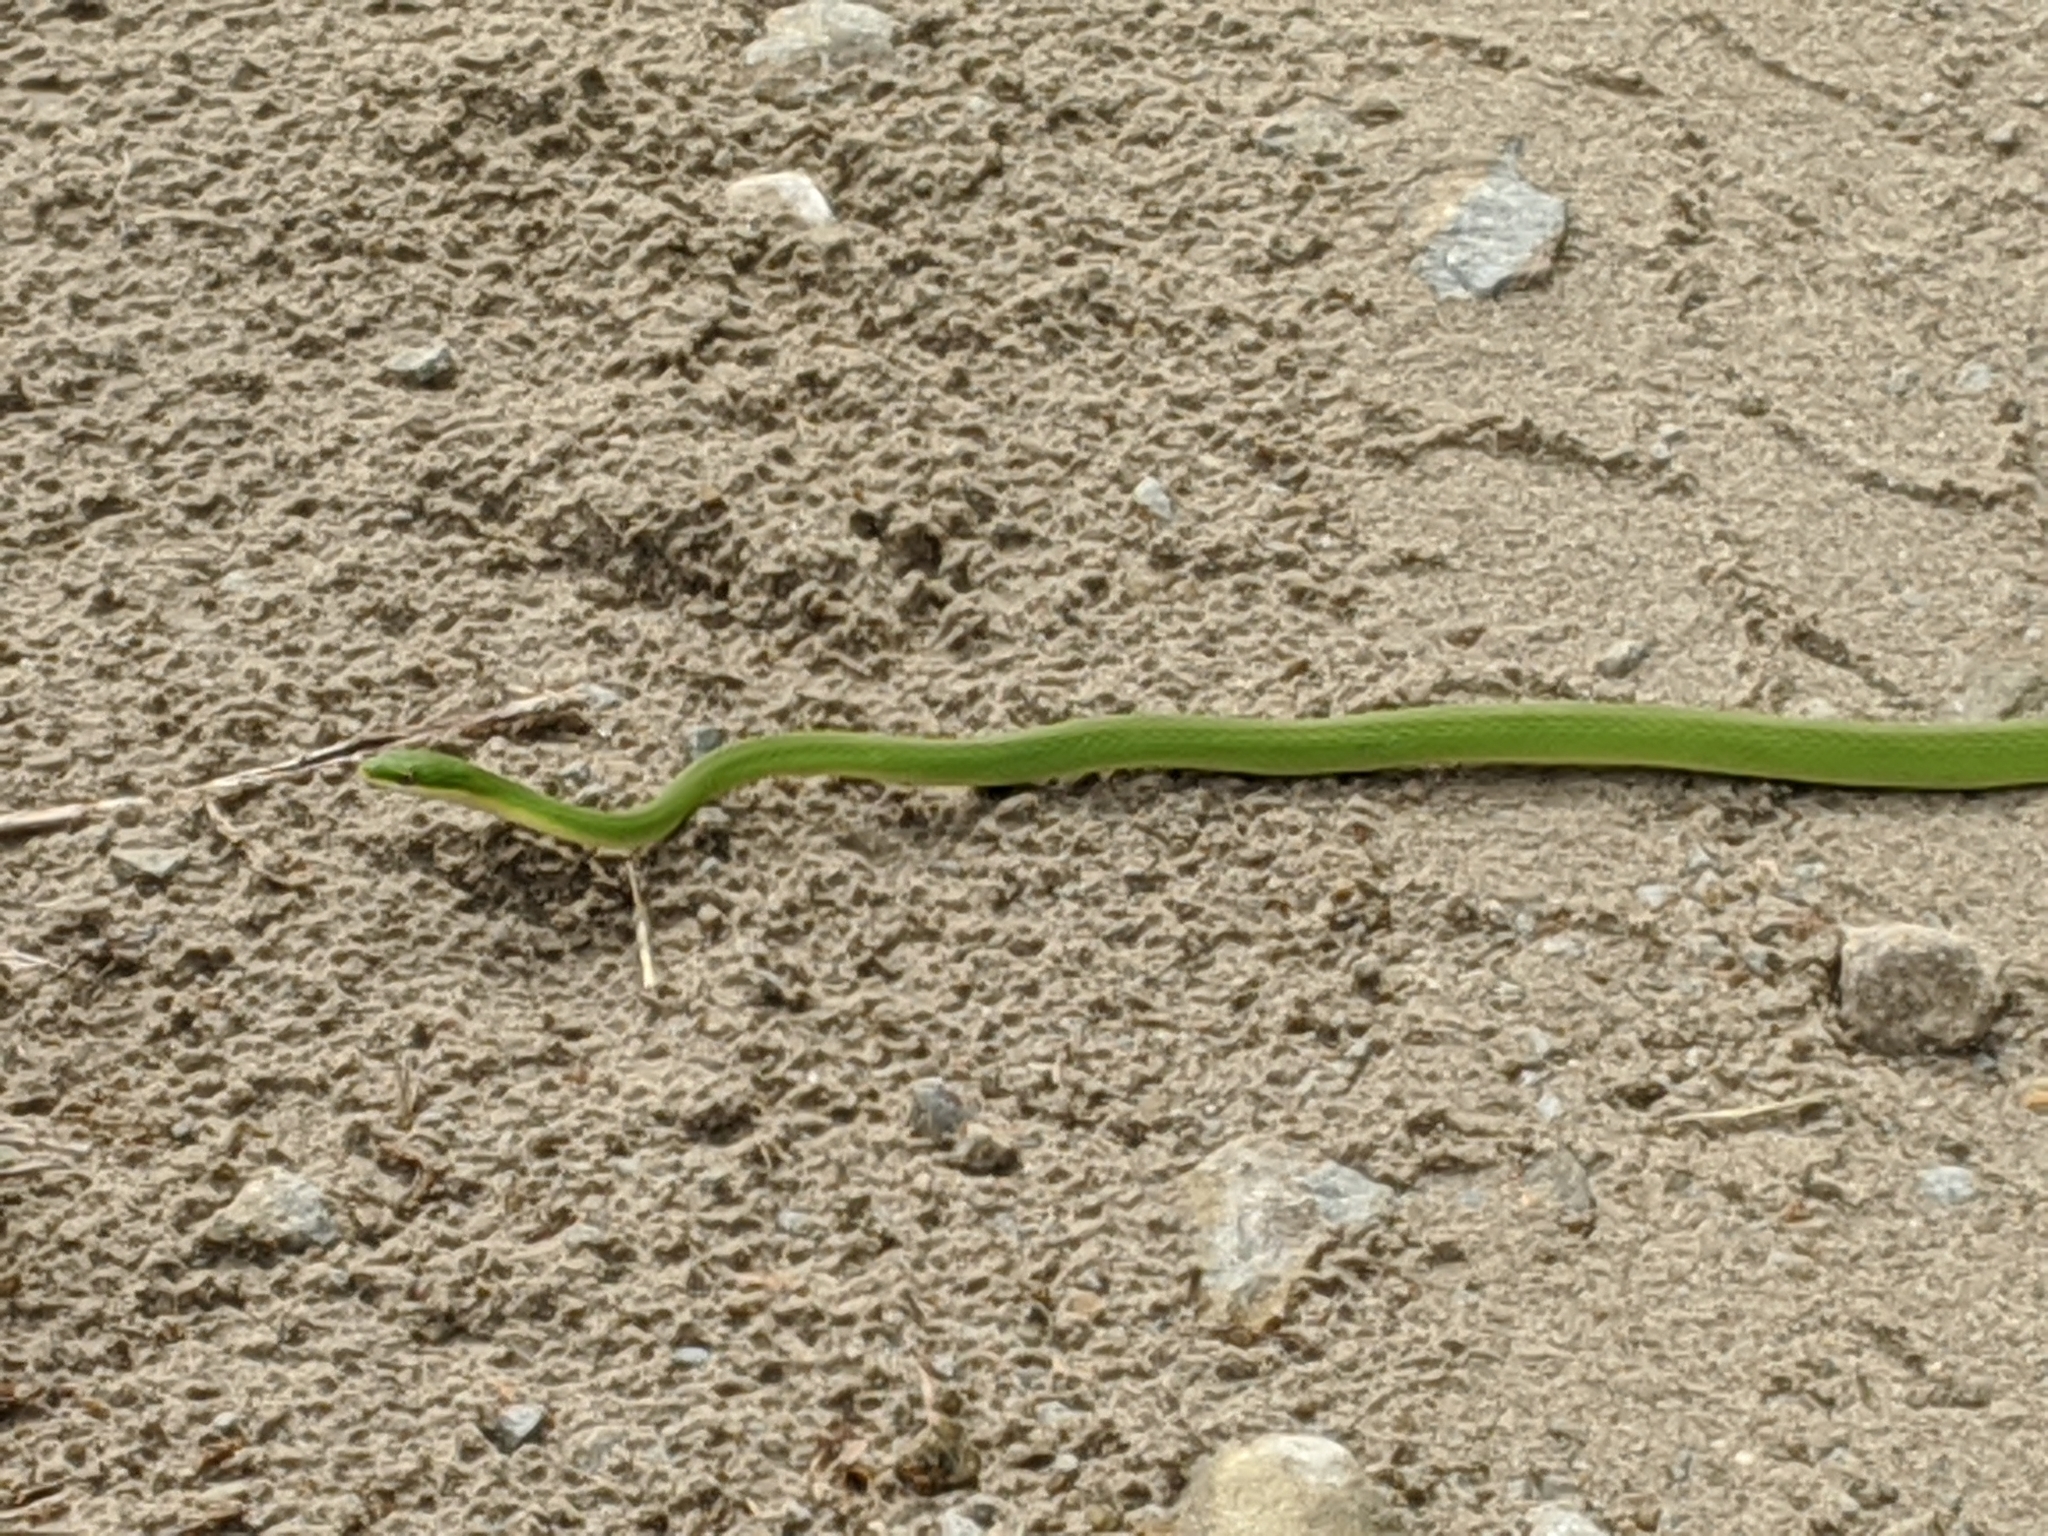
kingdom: Animalia
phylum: Chordata
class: Squamata
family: Colubridae
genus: Opheodrys
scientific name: Opheodrys aestivus
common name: Rough greensnake
